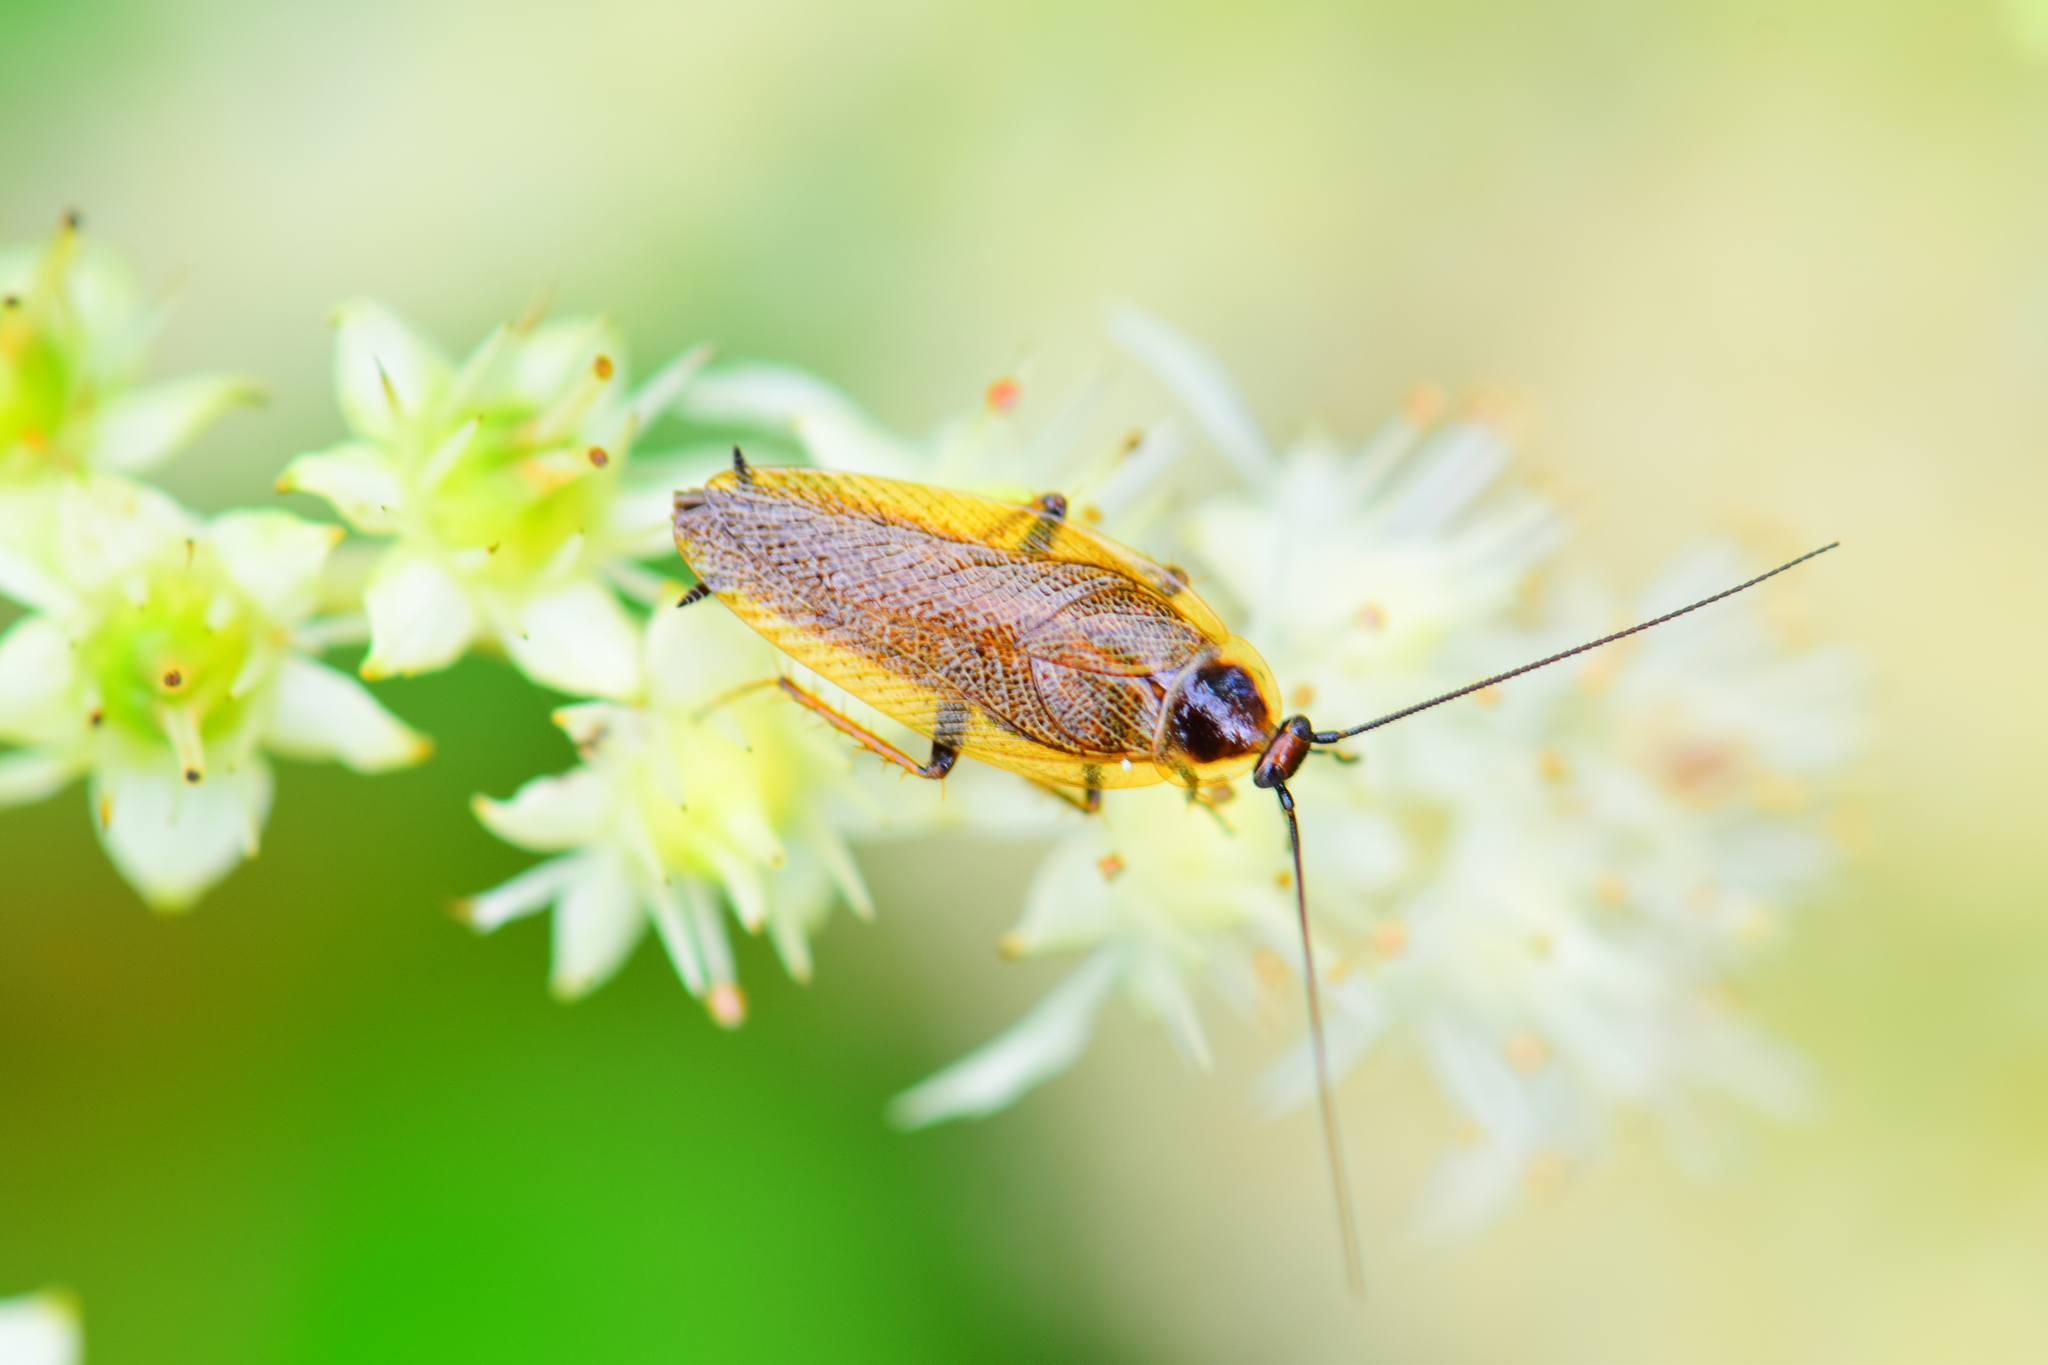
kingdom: Animalia
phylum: Arthropoda
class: Insecta
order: Blattodea
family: Ectobiidae
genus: Ectobius
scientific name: Ectobius lapponicus
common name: Dusky cockroach
